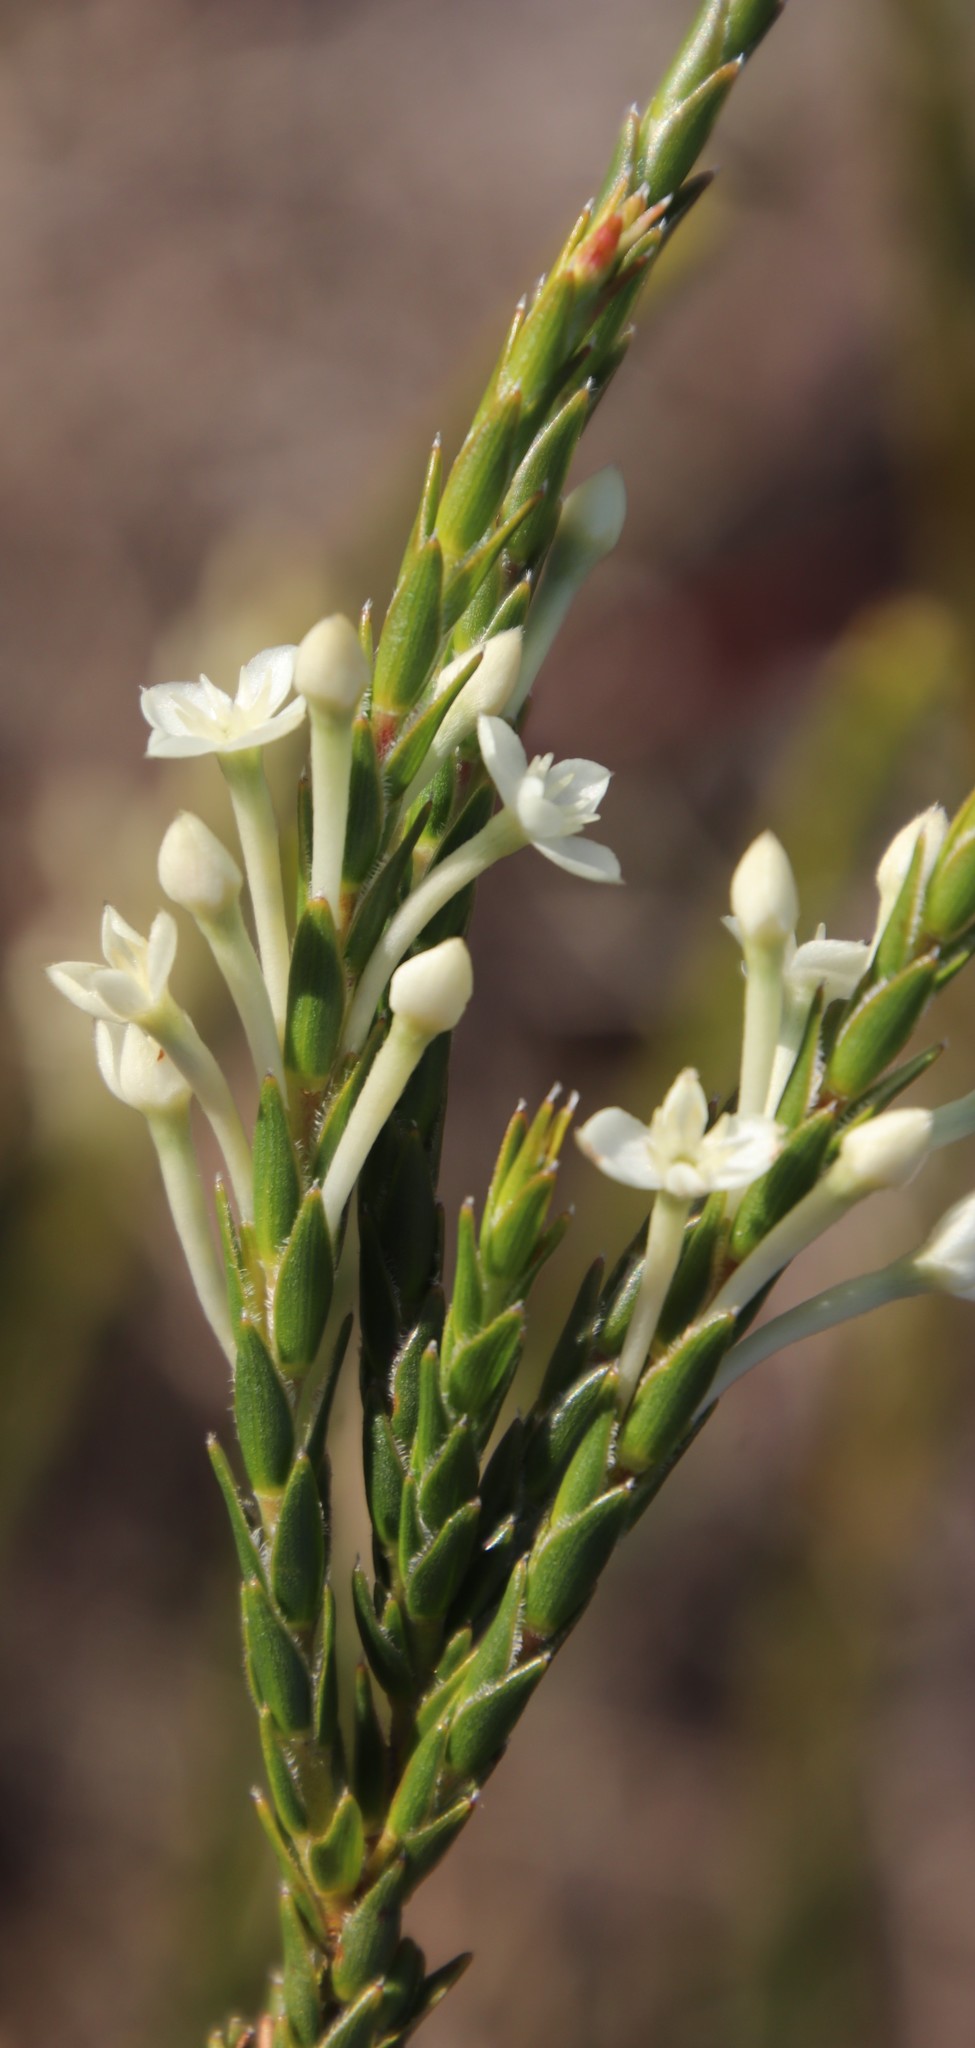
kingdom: Plantae
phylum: Tracheophyta
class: Magnoliopsida
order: Malvales
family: Thymelaeaceae
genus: Struthiola
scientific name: Struthiola ciliata
